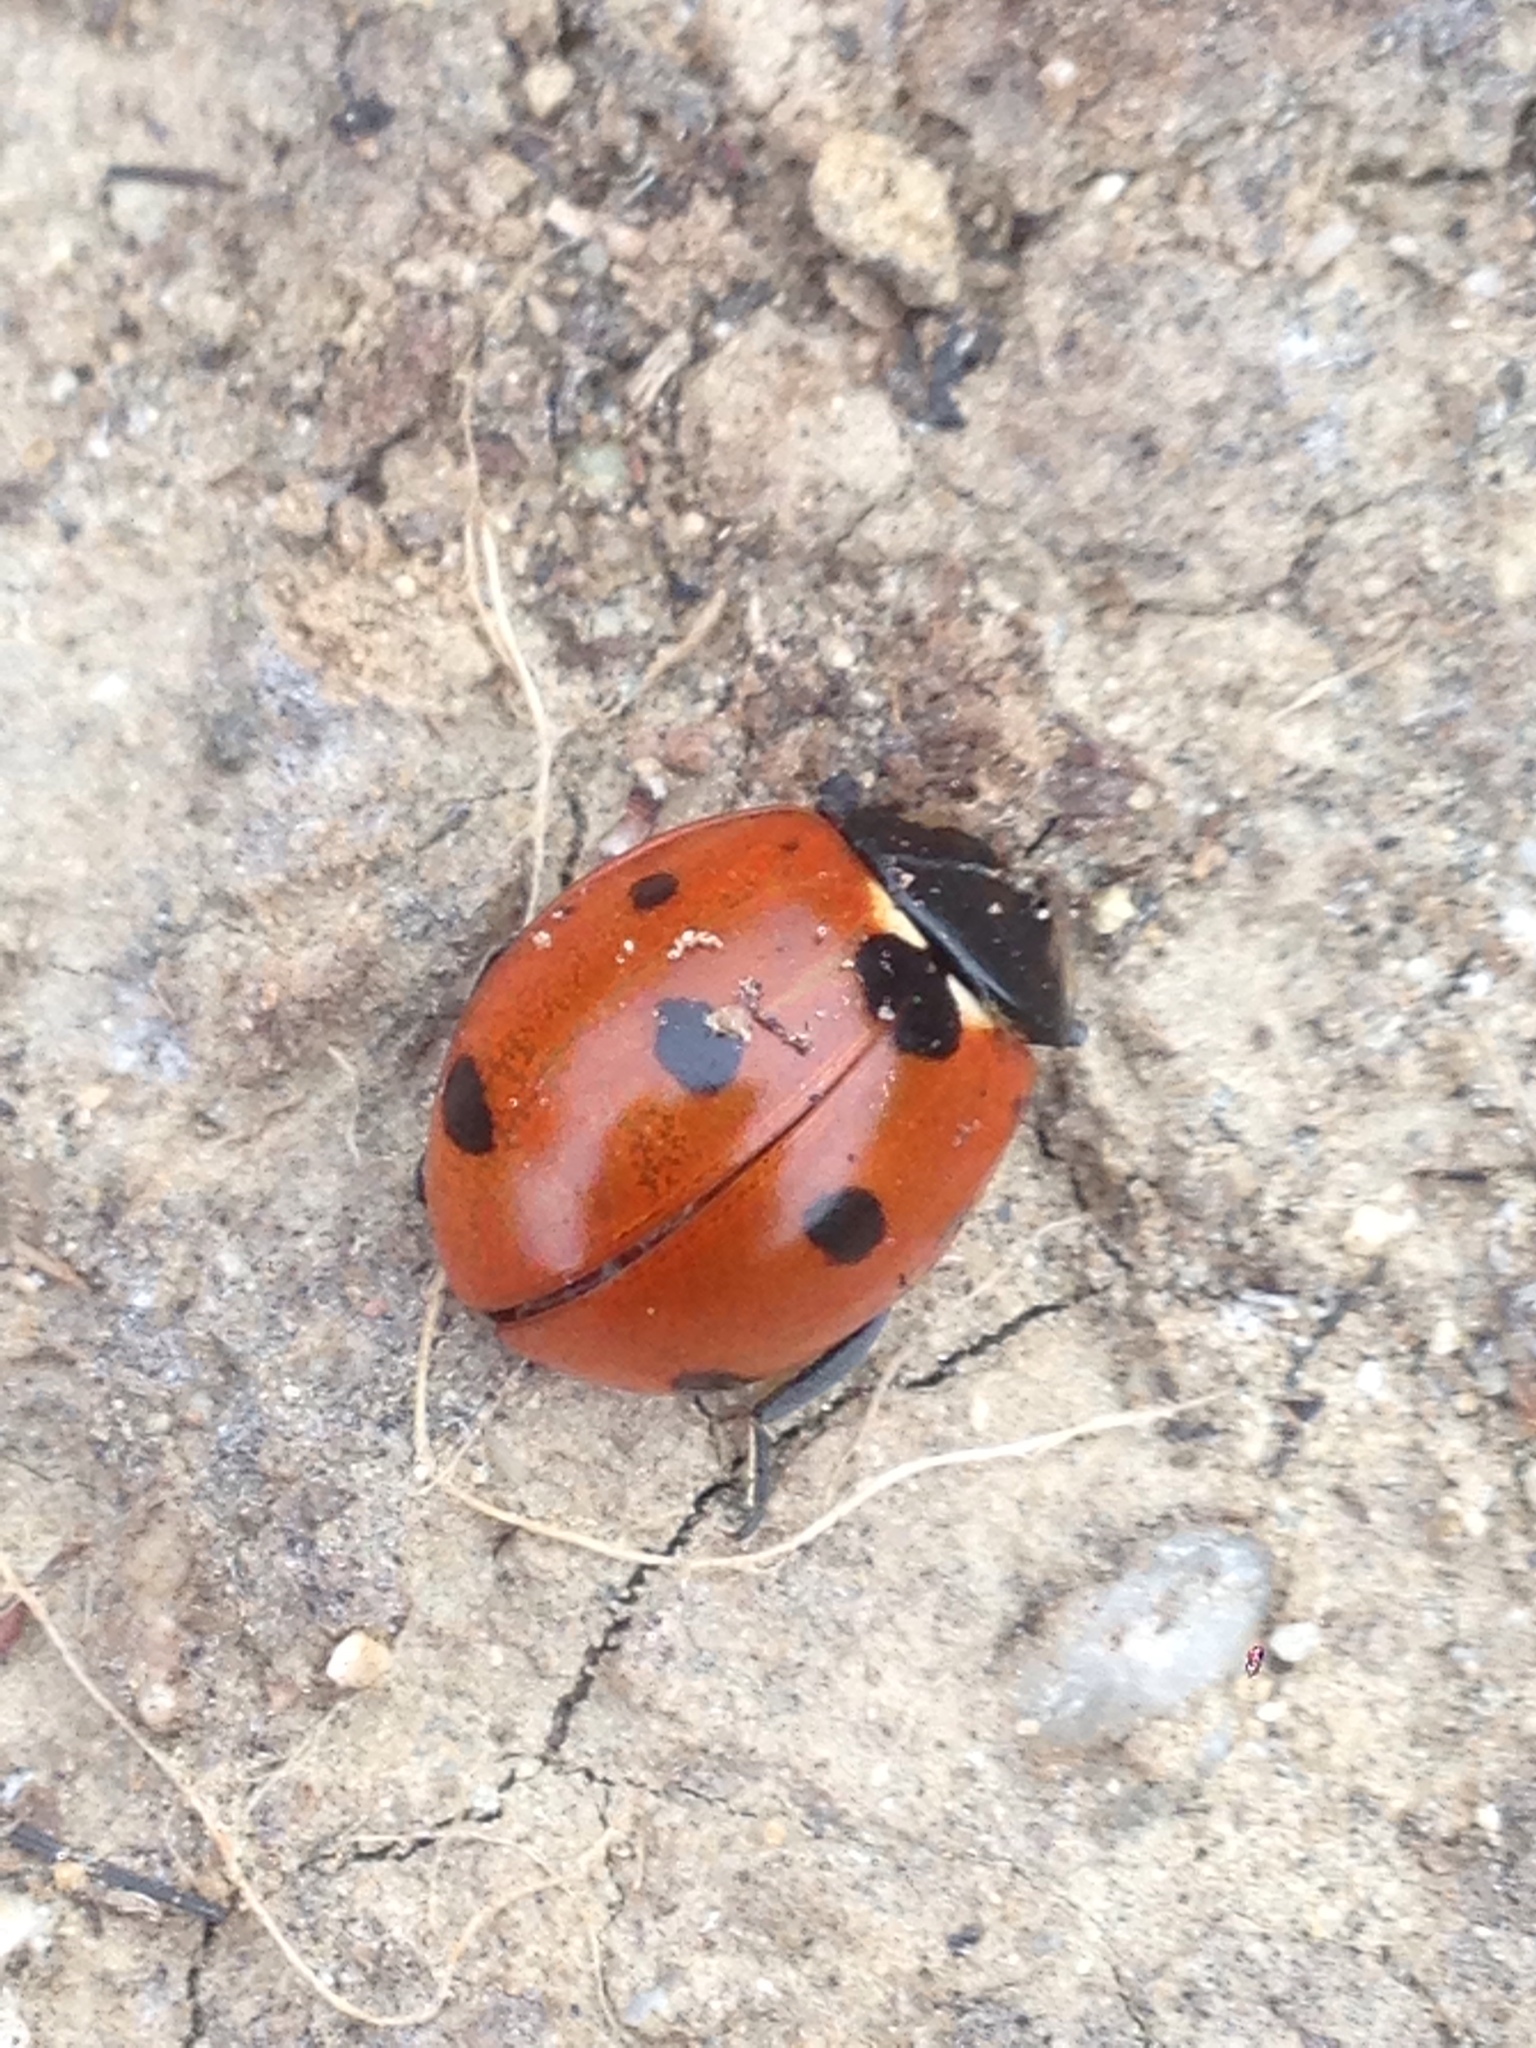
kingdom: Animalia
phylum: Arthropoda
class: Insecta
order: Coleoptera
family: Coccinellidae
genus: Coccinella
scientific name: Coccinella septempunctata
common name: Sevenspotted lady beetle
